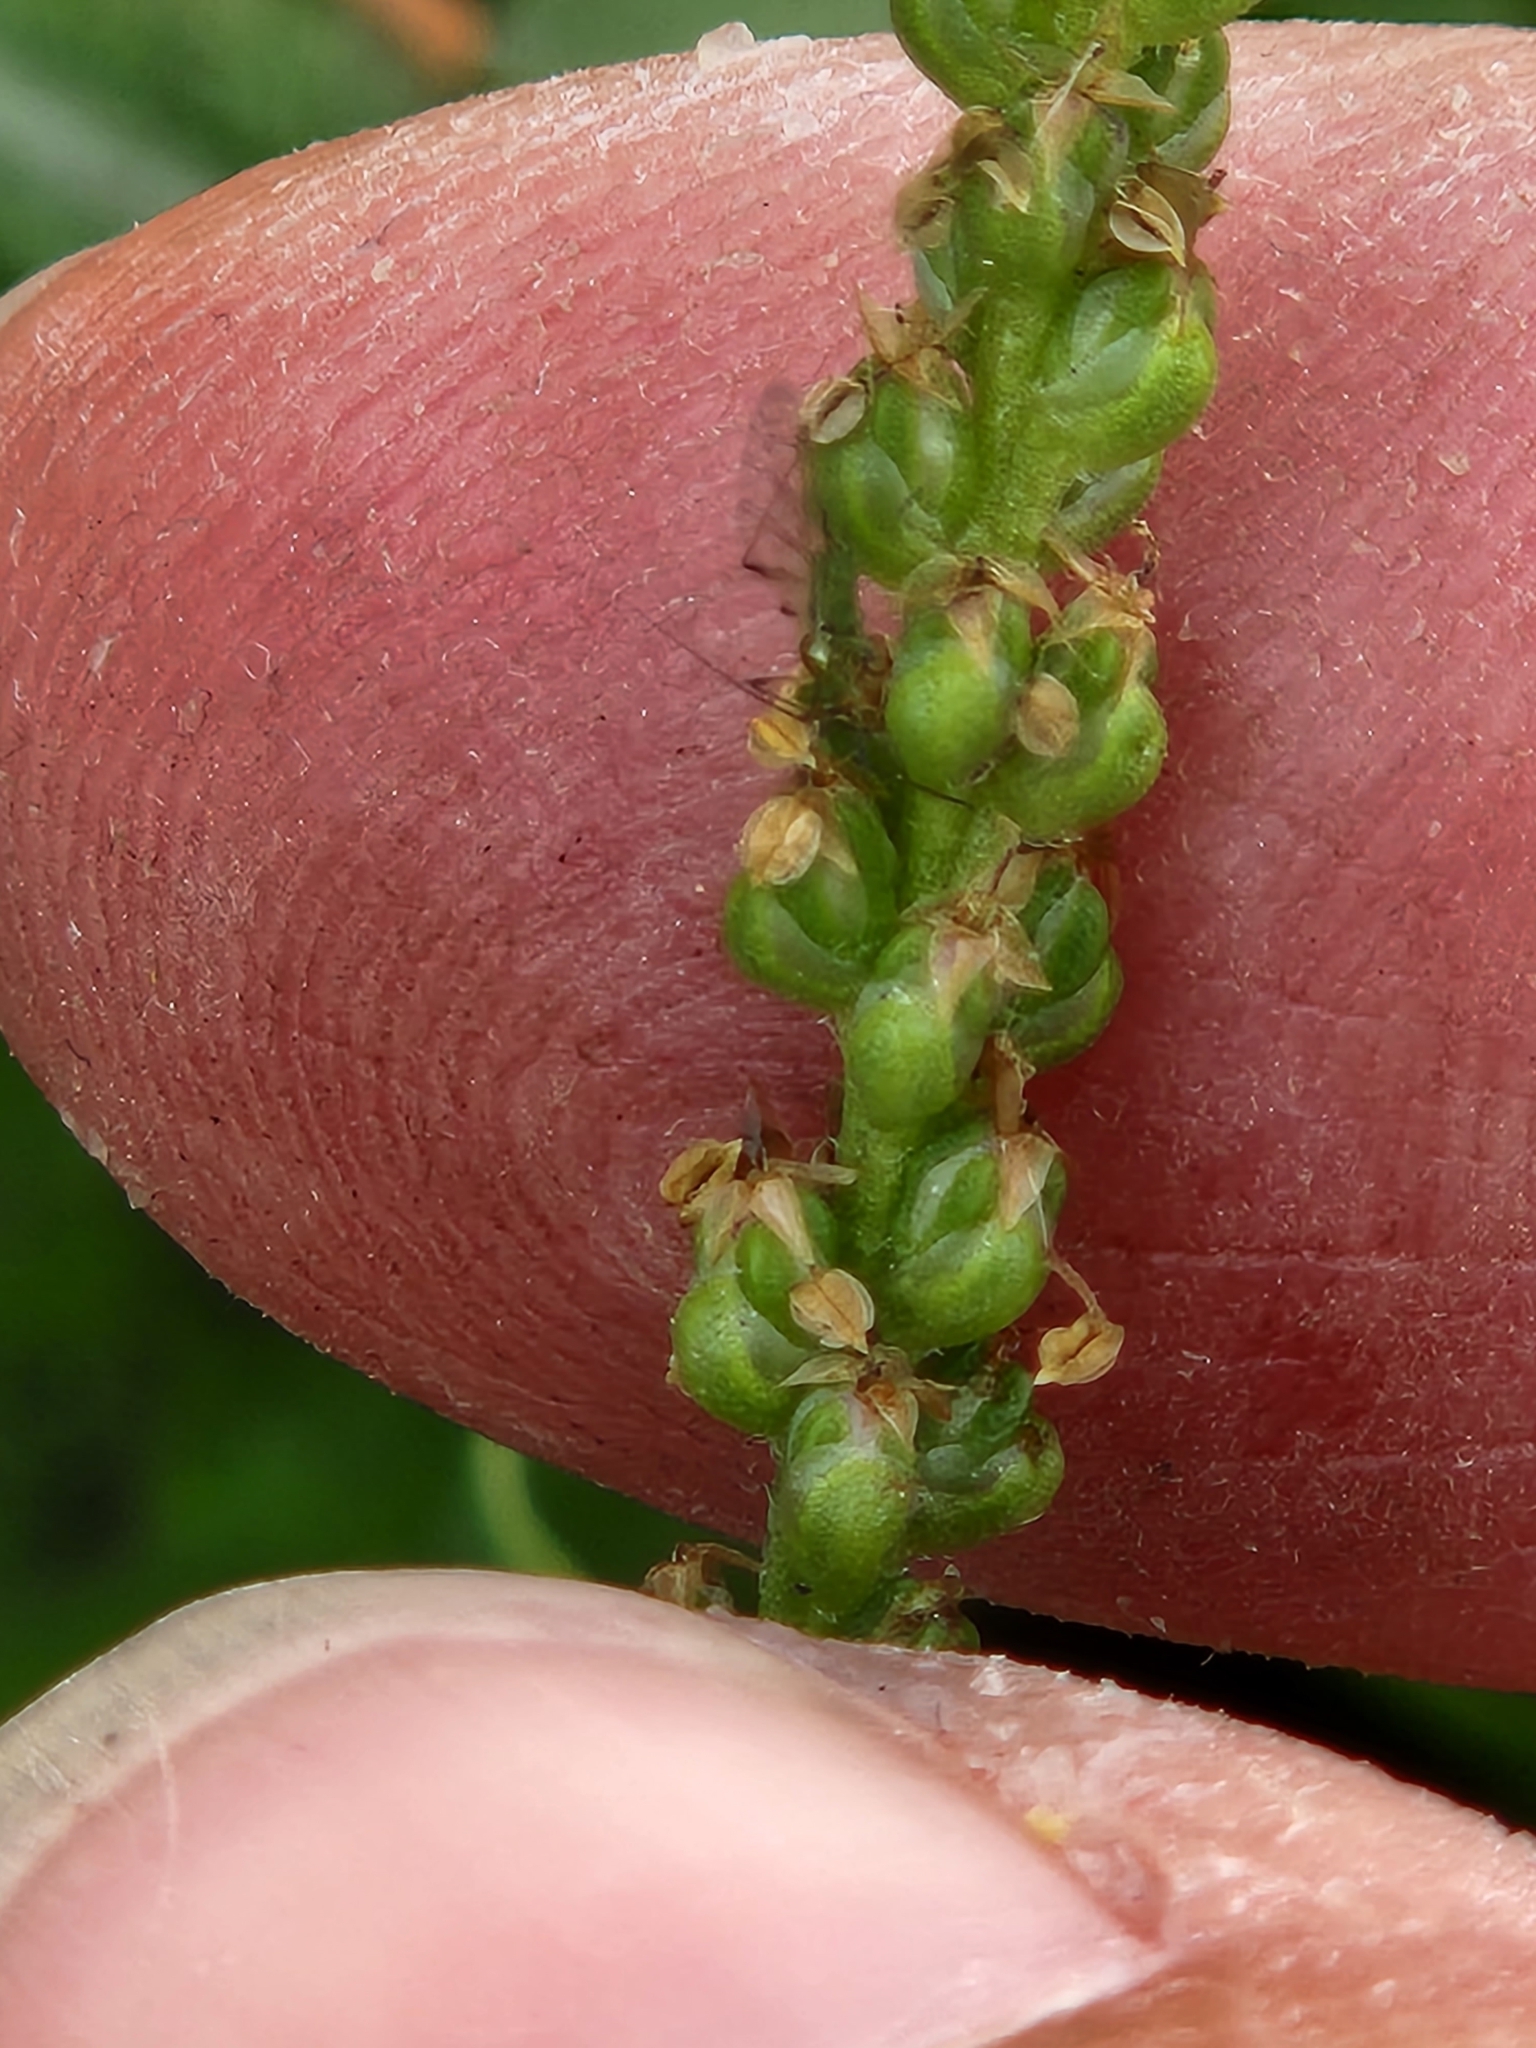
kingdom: Plantae
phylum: Tracheophyta
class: Magnoliopsida
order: Lamiales
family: Plantaginaceae
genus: Plantago
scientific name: Plantago major
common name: Common plantain
